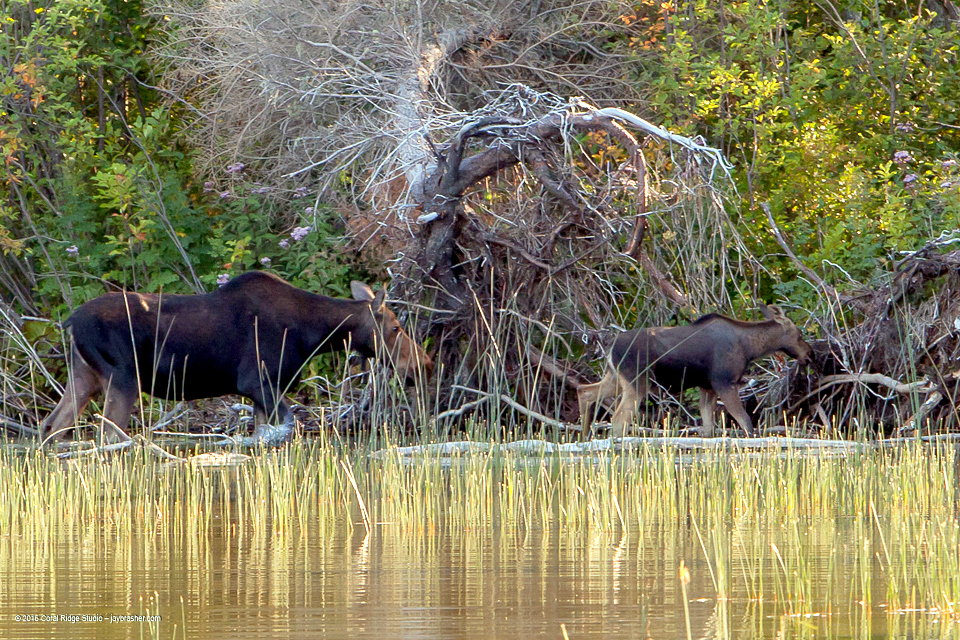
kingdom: Animalia
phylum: Chordata
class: Mammalia
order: Artiodactyla
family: Cervidae
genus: Alces
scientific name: Alces alces
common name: Moose
